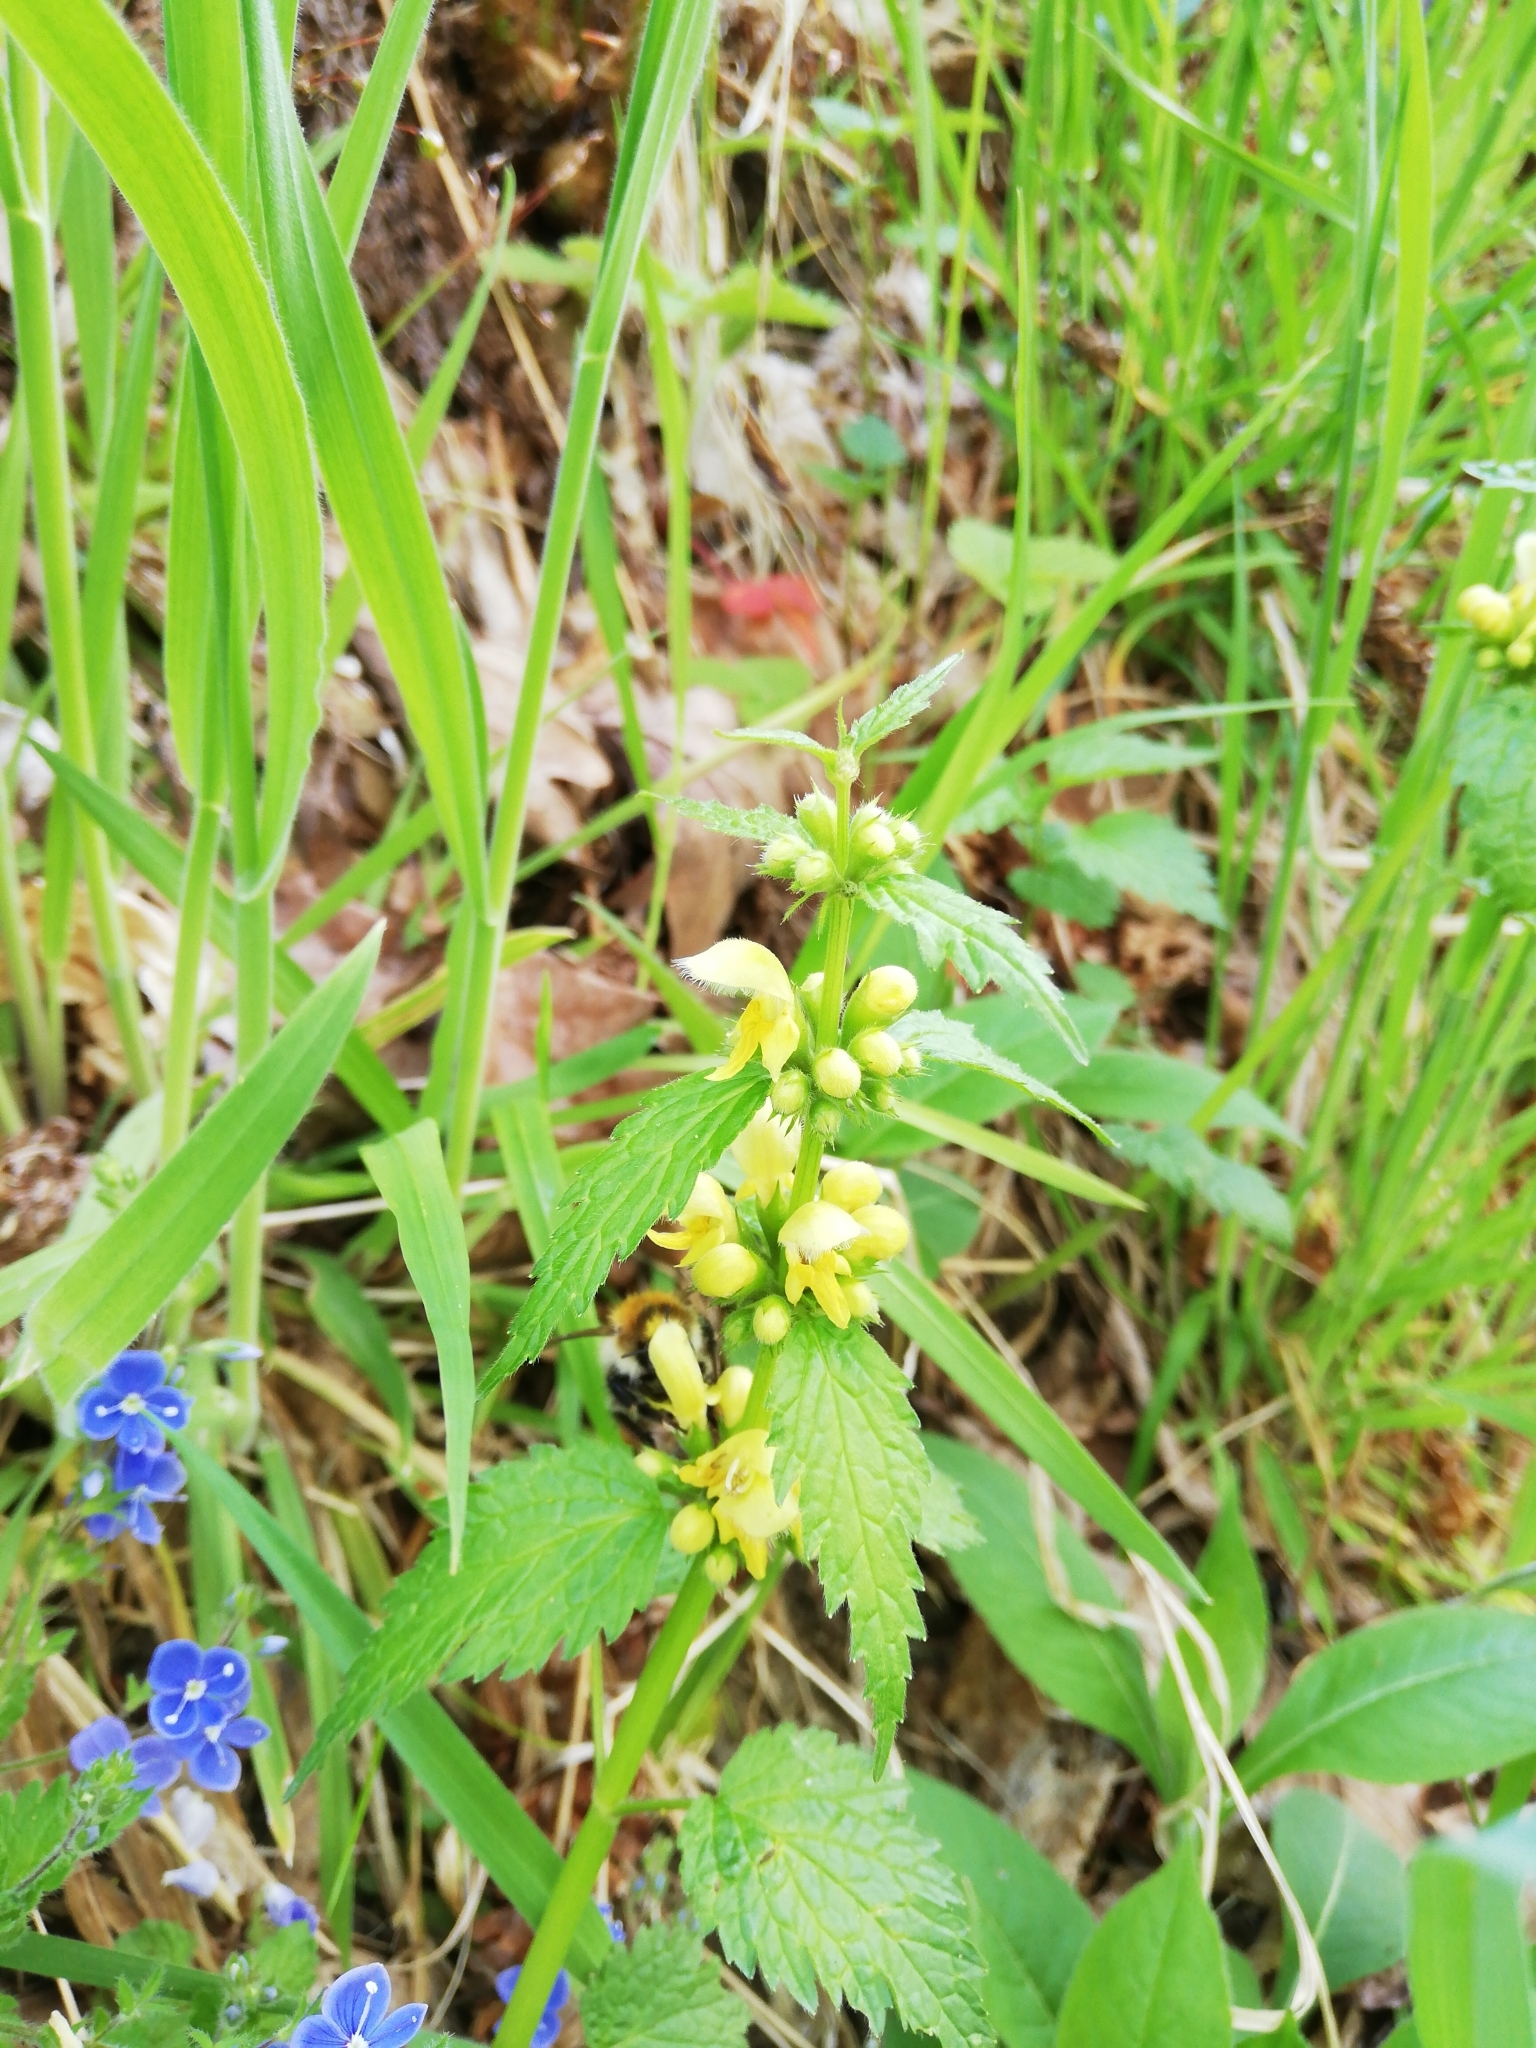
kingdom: Plantae
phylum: Tracheophyta
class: Magnoliopsida
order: Lamiales
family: Lamiaceae
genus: Lamium
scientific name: Lamium galeobdolon
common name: Yellow archangel
